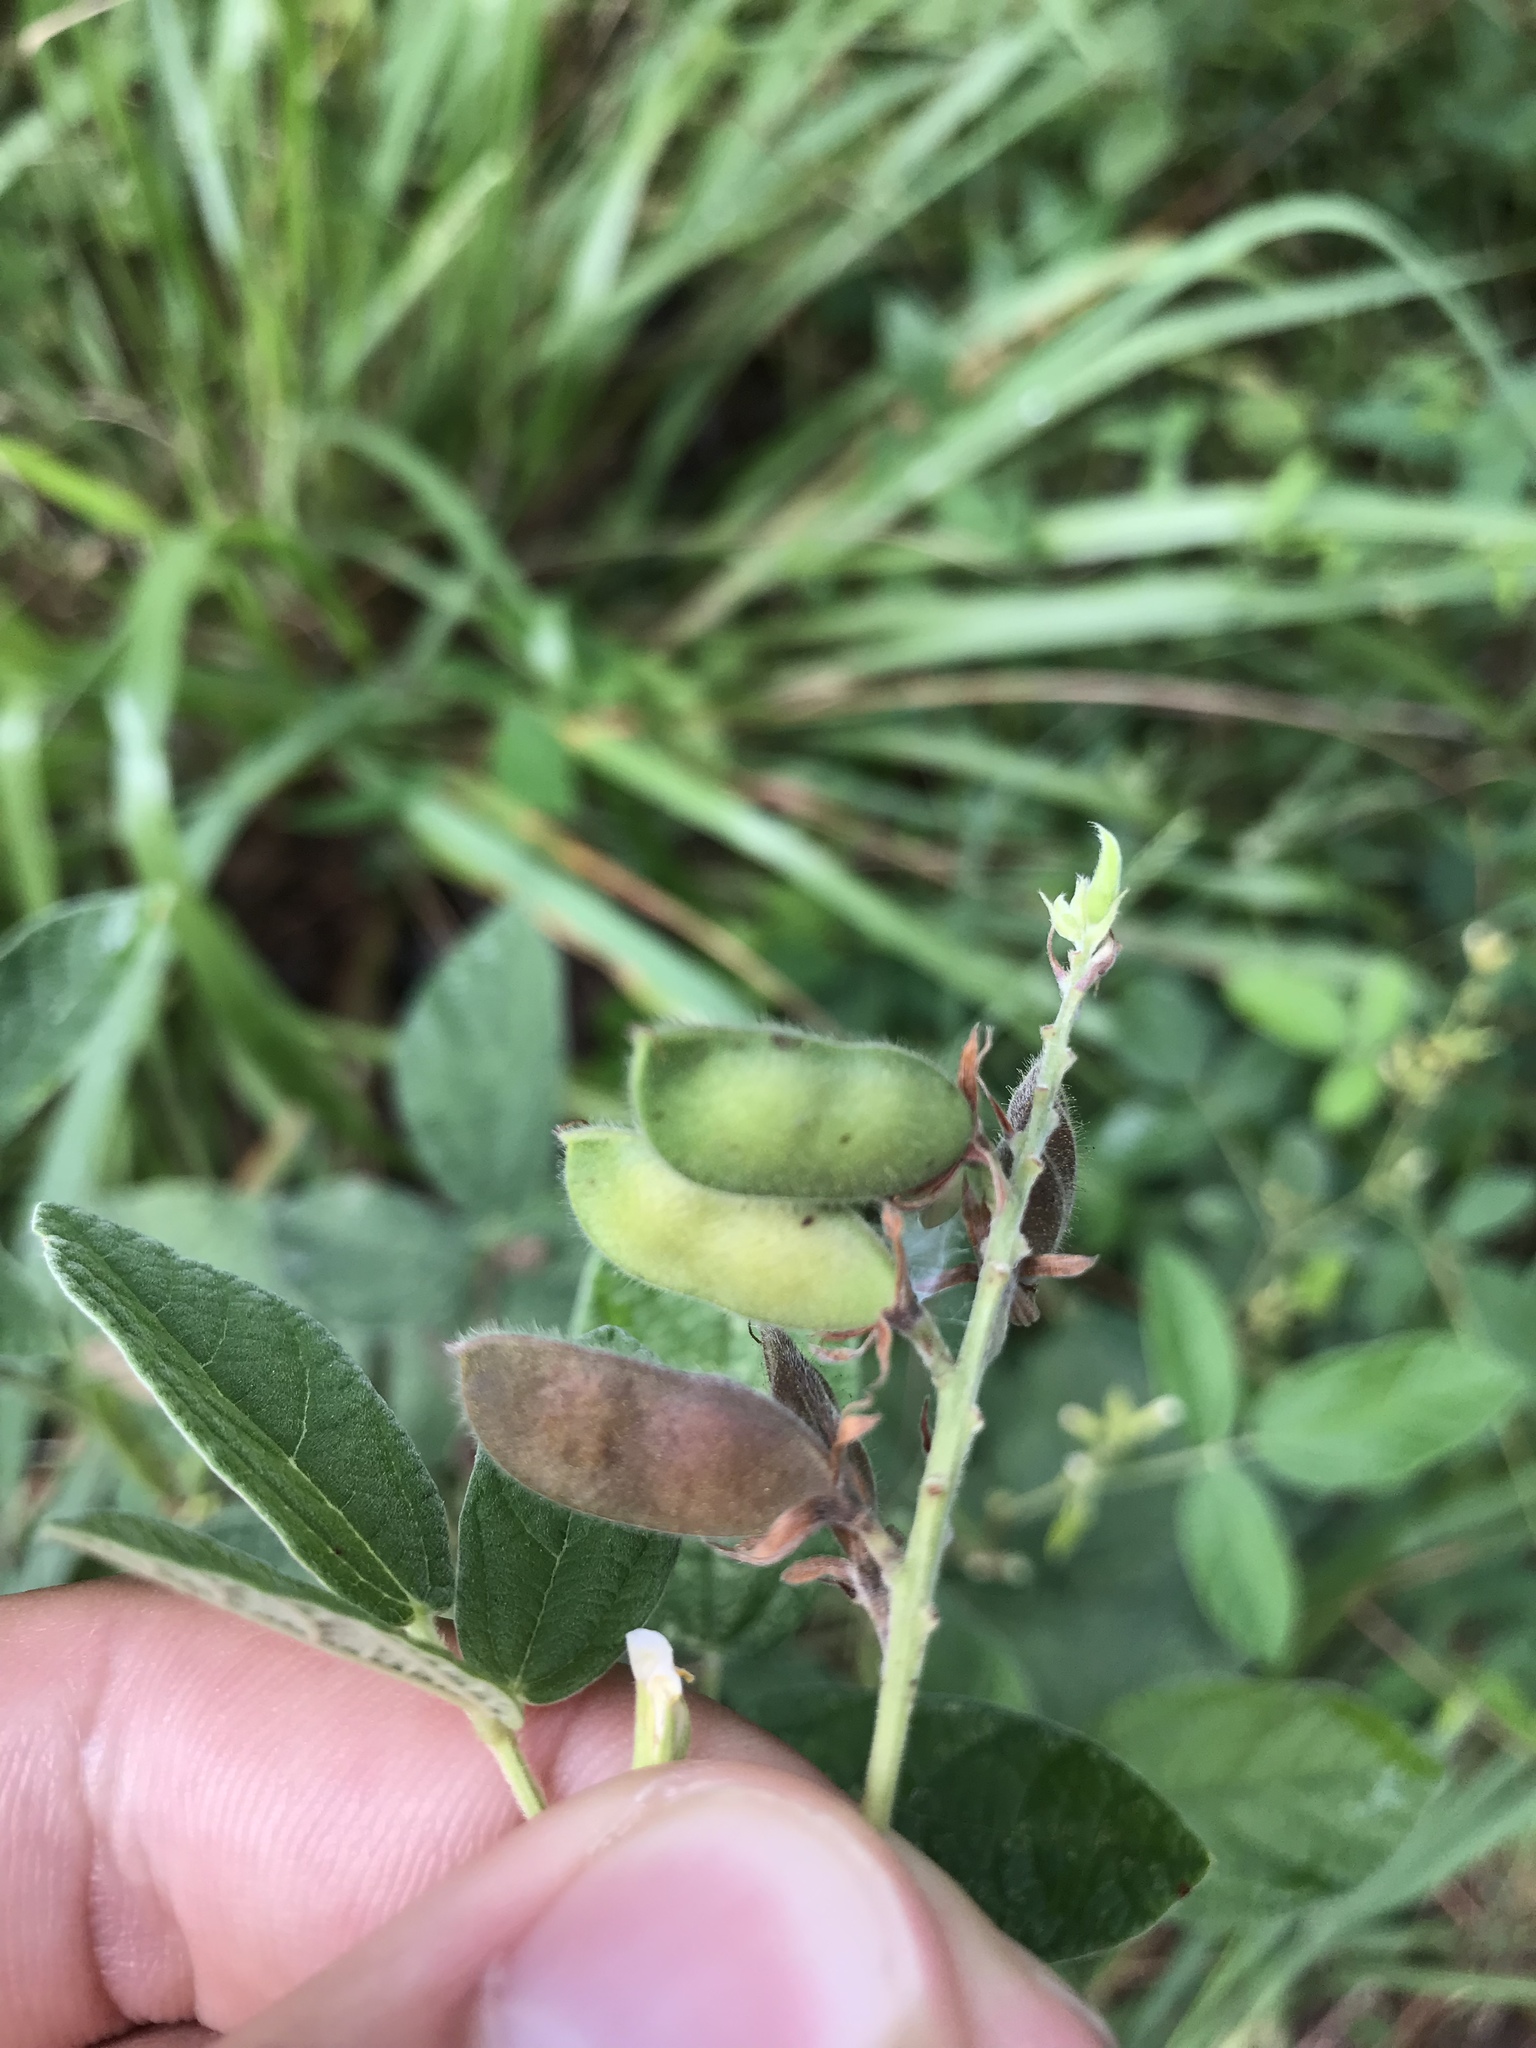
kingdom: Plantae
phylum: Tracheophyta
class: Magnoliopsida
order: Fabales
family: Fabaceae
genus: Rhynchosia
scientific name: Rhynchosia tomentosa
